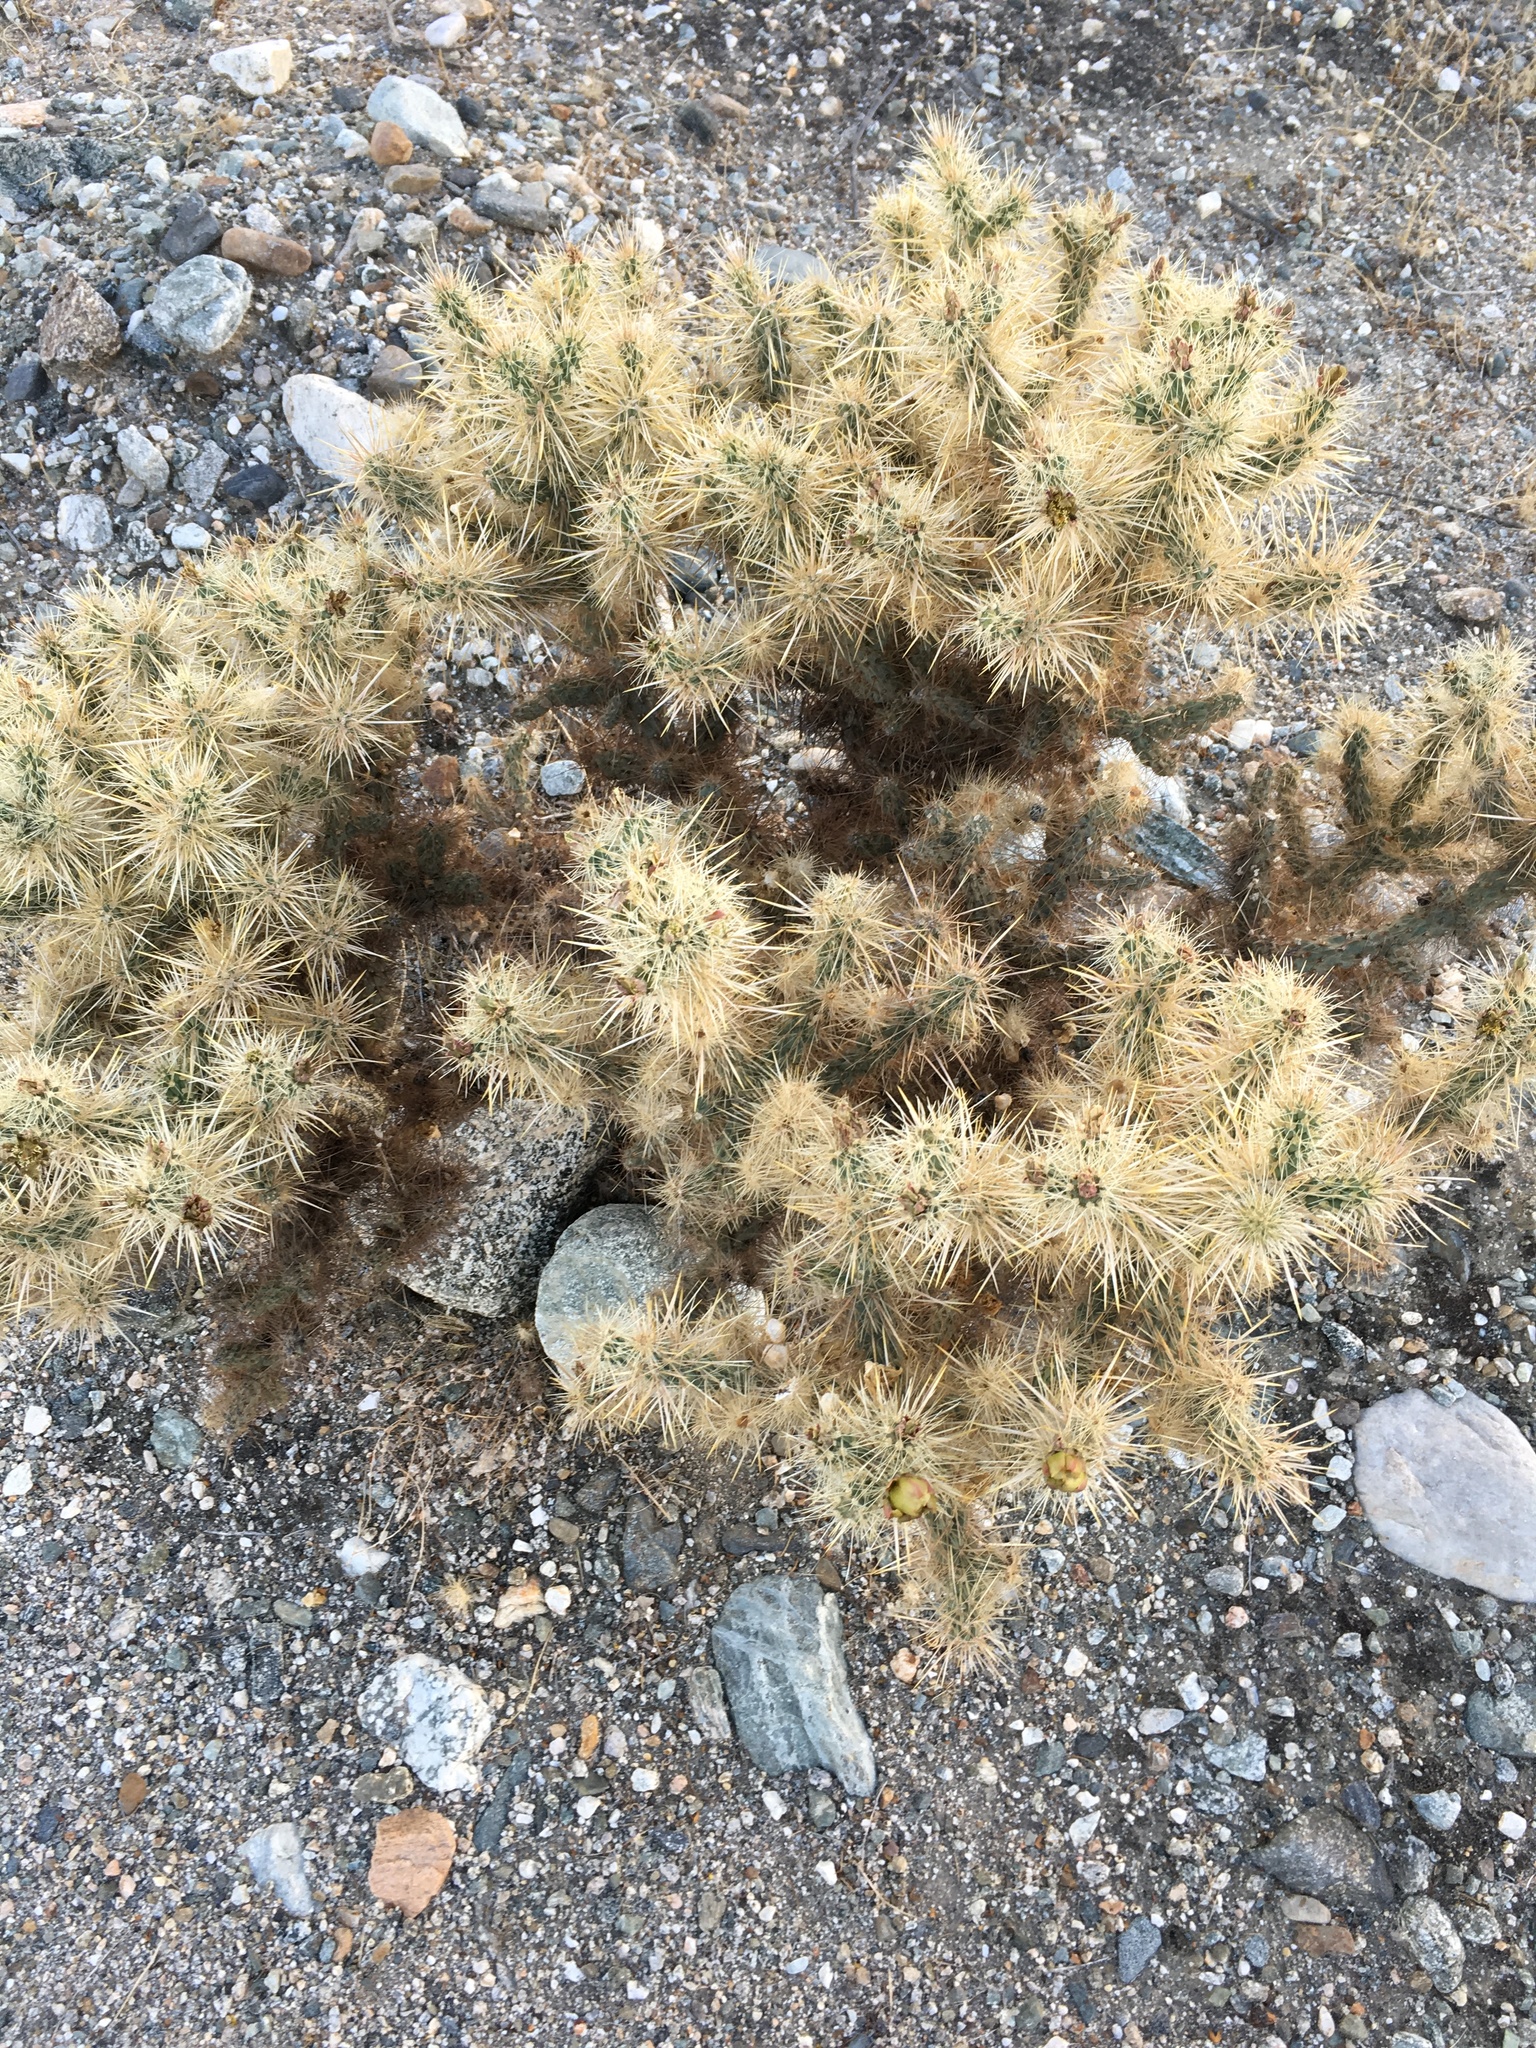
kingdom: Plantae
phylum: Tracheophyta
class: Magnoliopsida
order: Caryophyllales
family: Cactaceae
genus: Cylindropuntia
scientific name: Cylindropuntia echinocarpa
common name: Ground cholla
